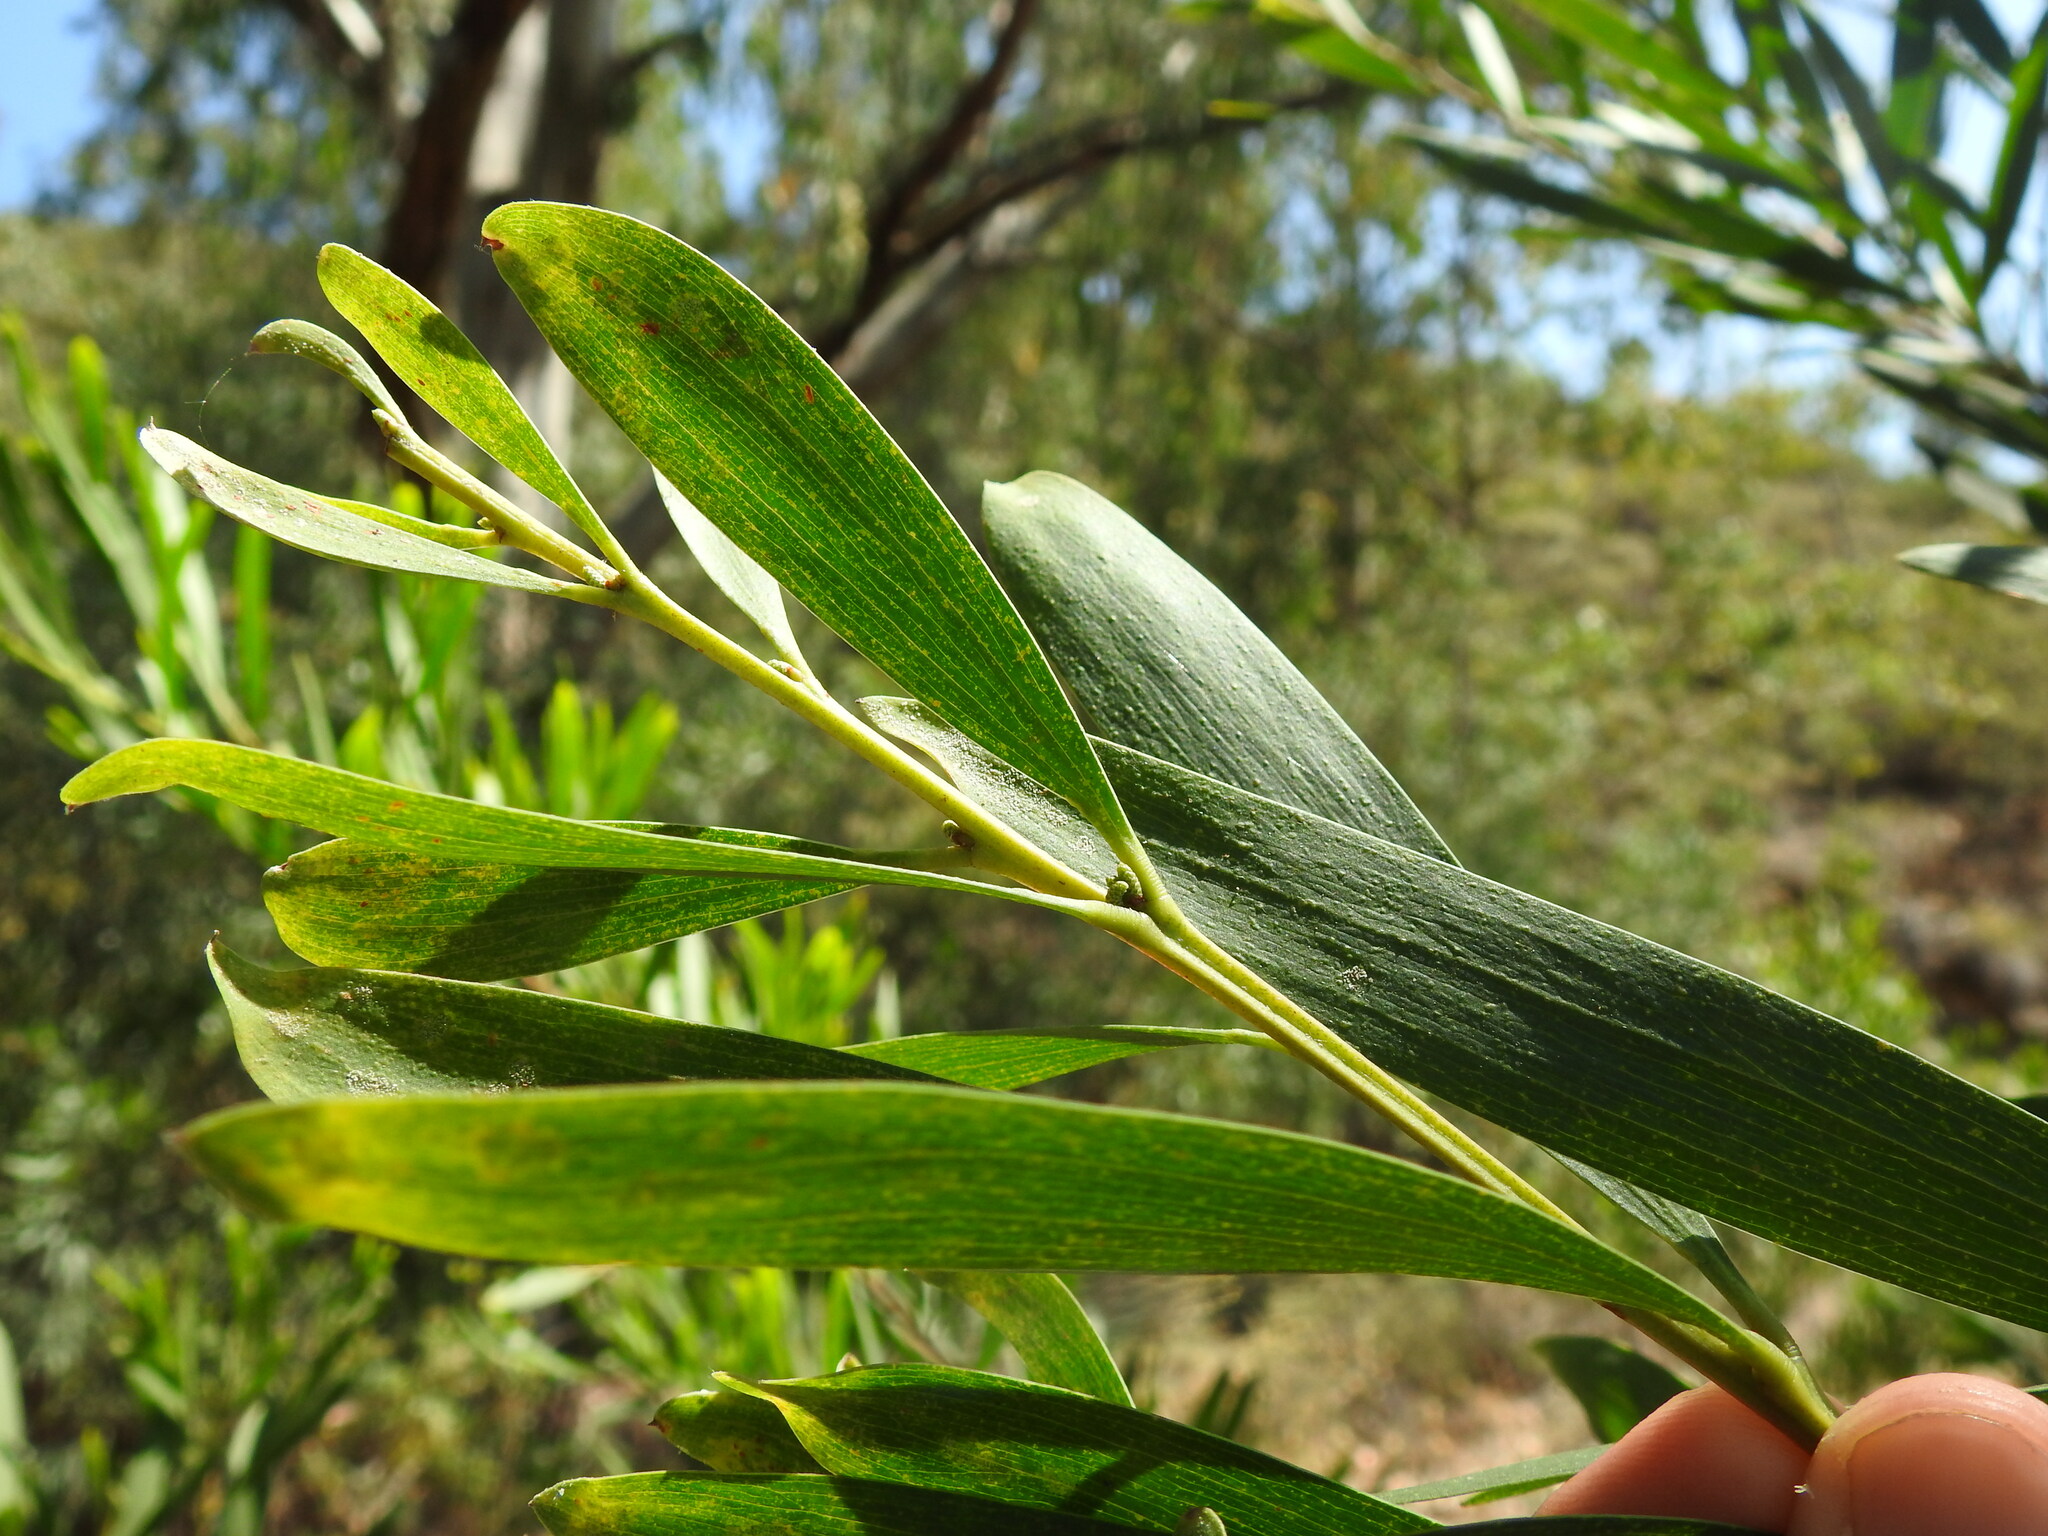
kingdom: Plantae
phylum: Tracheophyta
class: Magnoliopsida
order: Fabales
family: Fabaceae
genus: Acacia
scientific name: Acacia longifolia
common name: Sydney golden wattle
